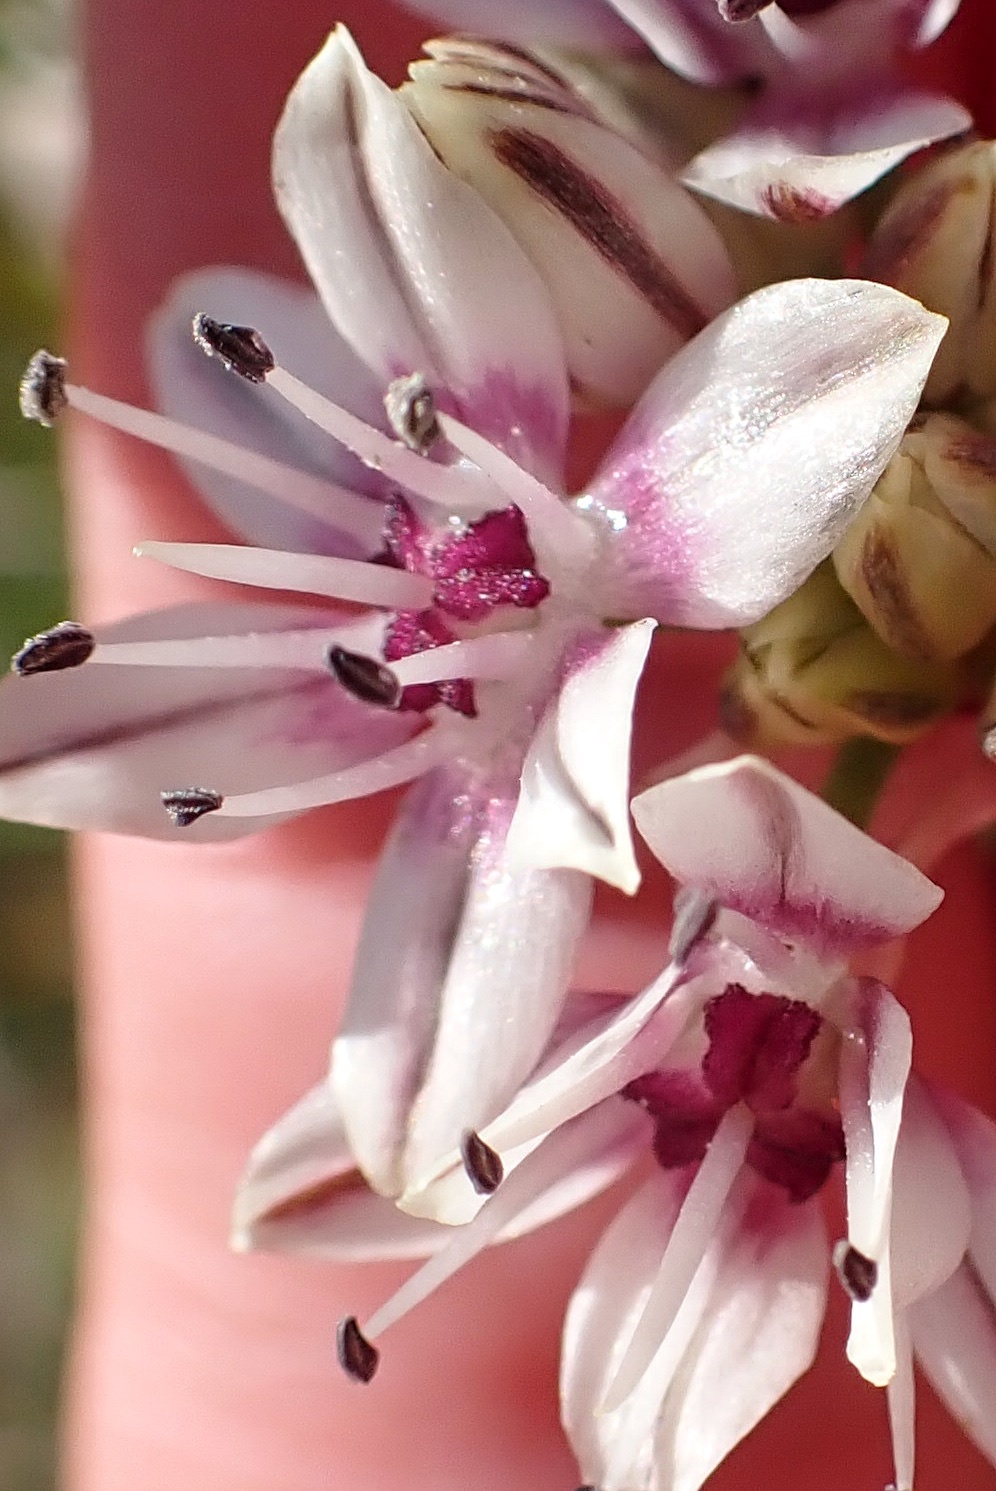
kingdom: Plantae
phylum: Tracheophyta
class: Liliopsida
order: Asparagales
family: Amaryllidaceae
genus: Allium
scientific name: Allium haematochiton
